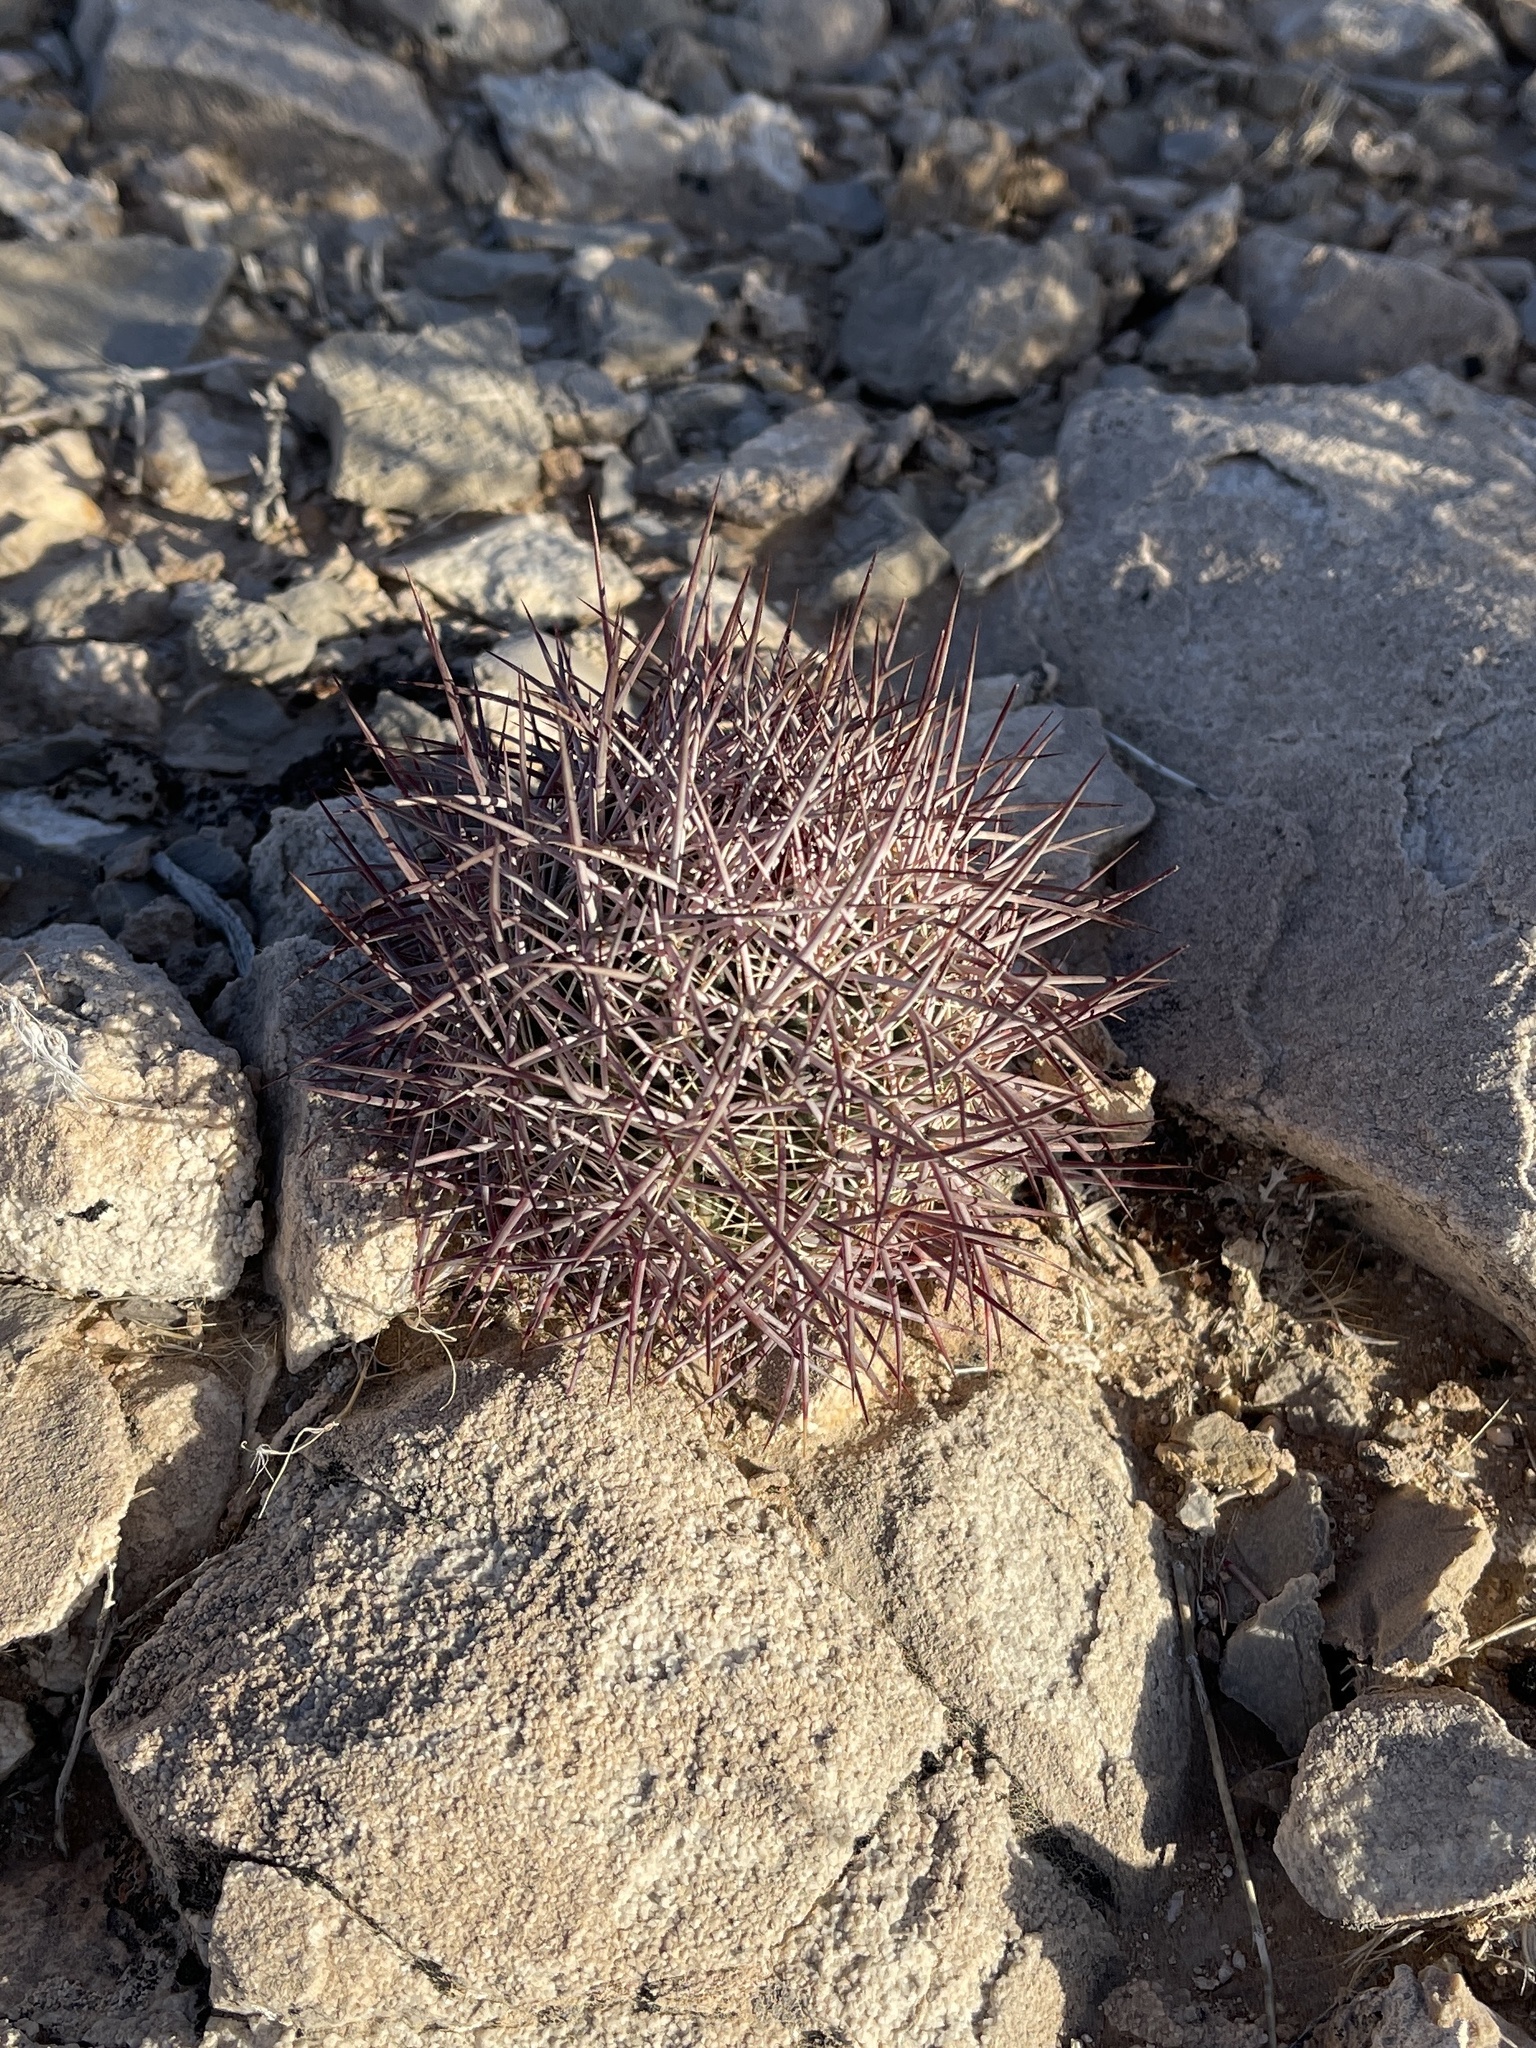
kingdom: Plantae
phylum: Tracheophyta
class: Magnoliopsida
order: Caryophyllales
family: Cactaceae
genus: Sclerocactus
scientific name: Sclerocactus johnsonii
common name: Eight-spine fishhook cactus
